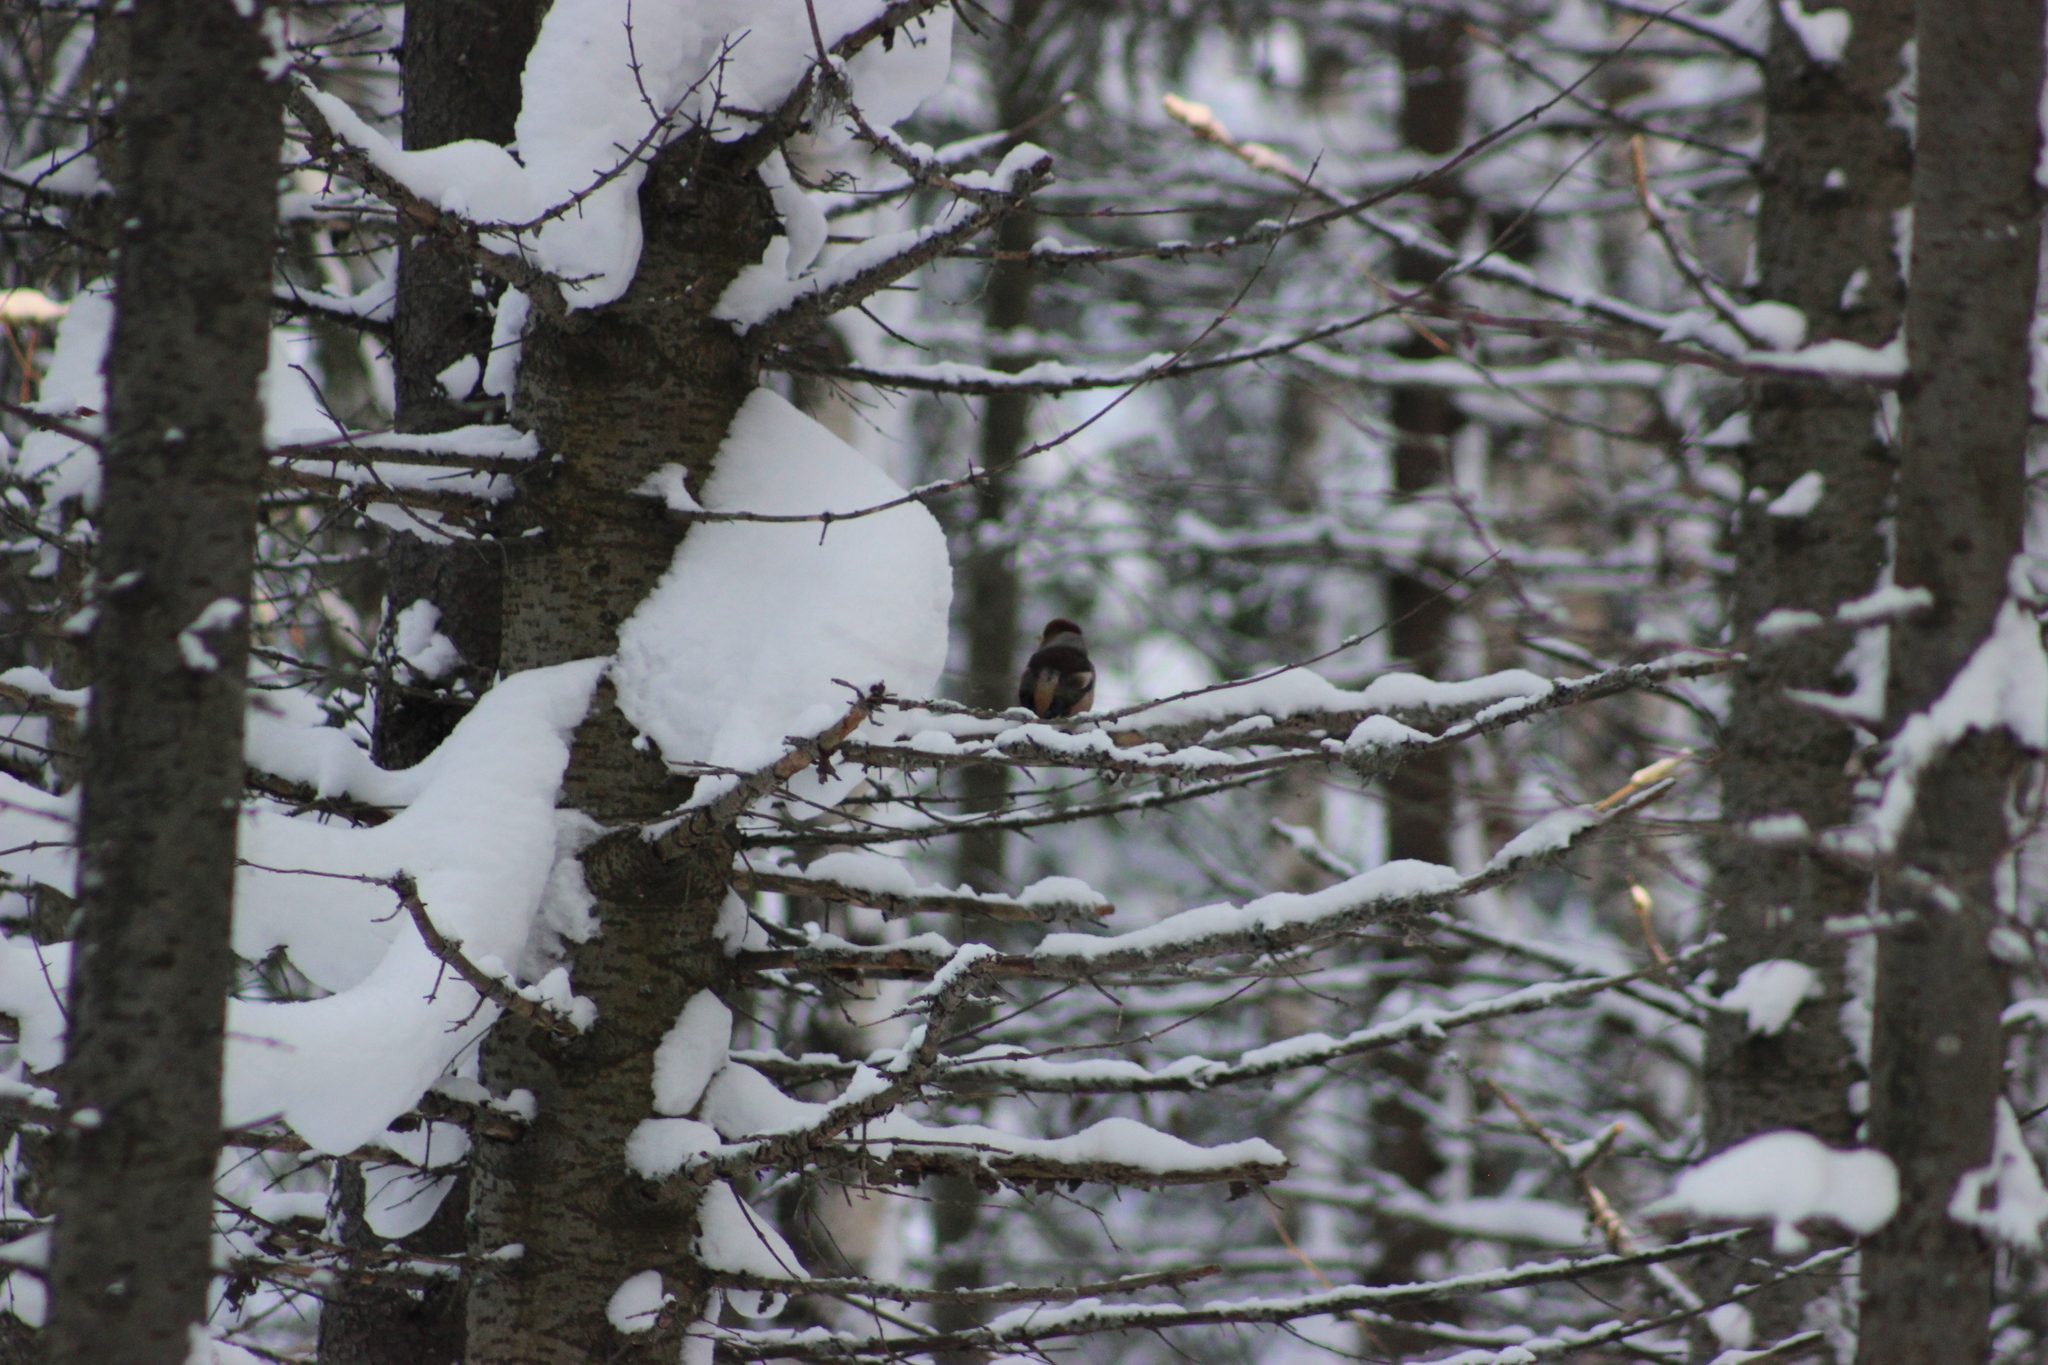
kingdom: Animalia
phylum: Chordata
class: Aves
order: Passeriformes
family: Fringillidae
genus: Coccothraustes
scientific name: Coccothraustes coccothraustes
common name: Hawfinch
